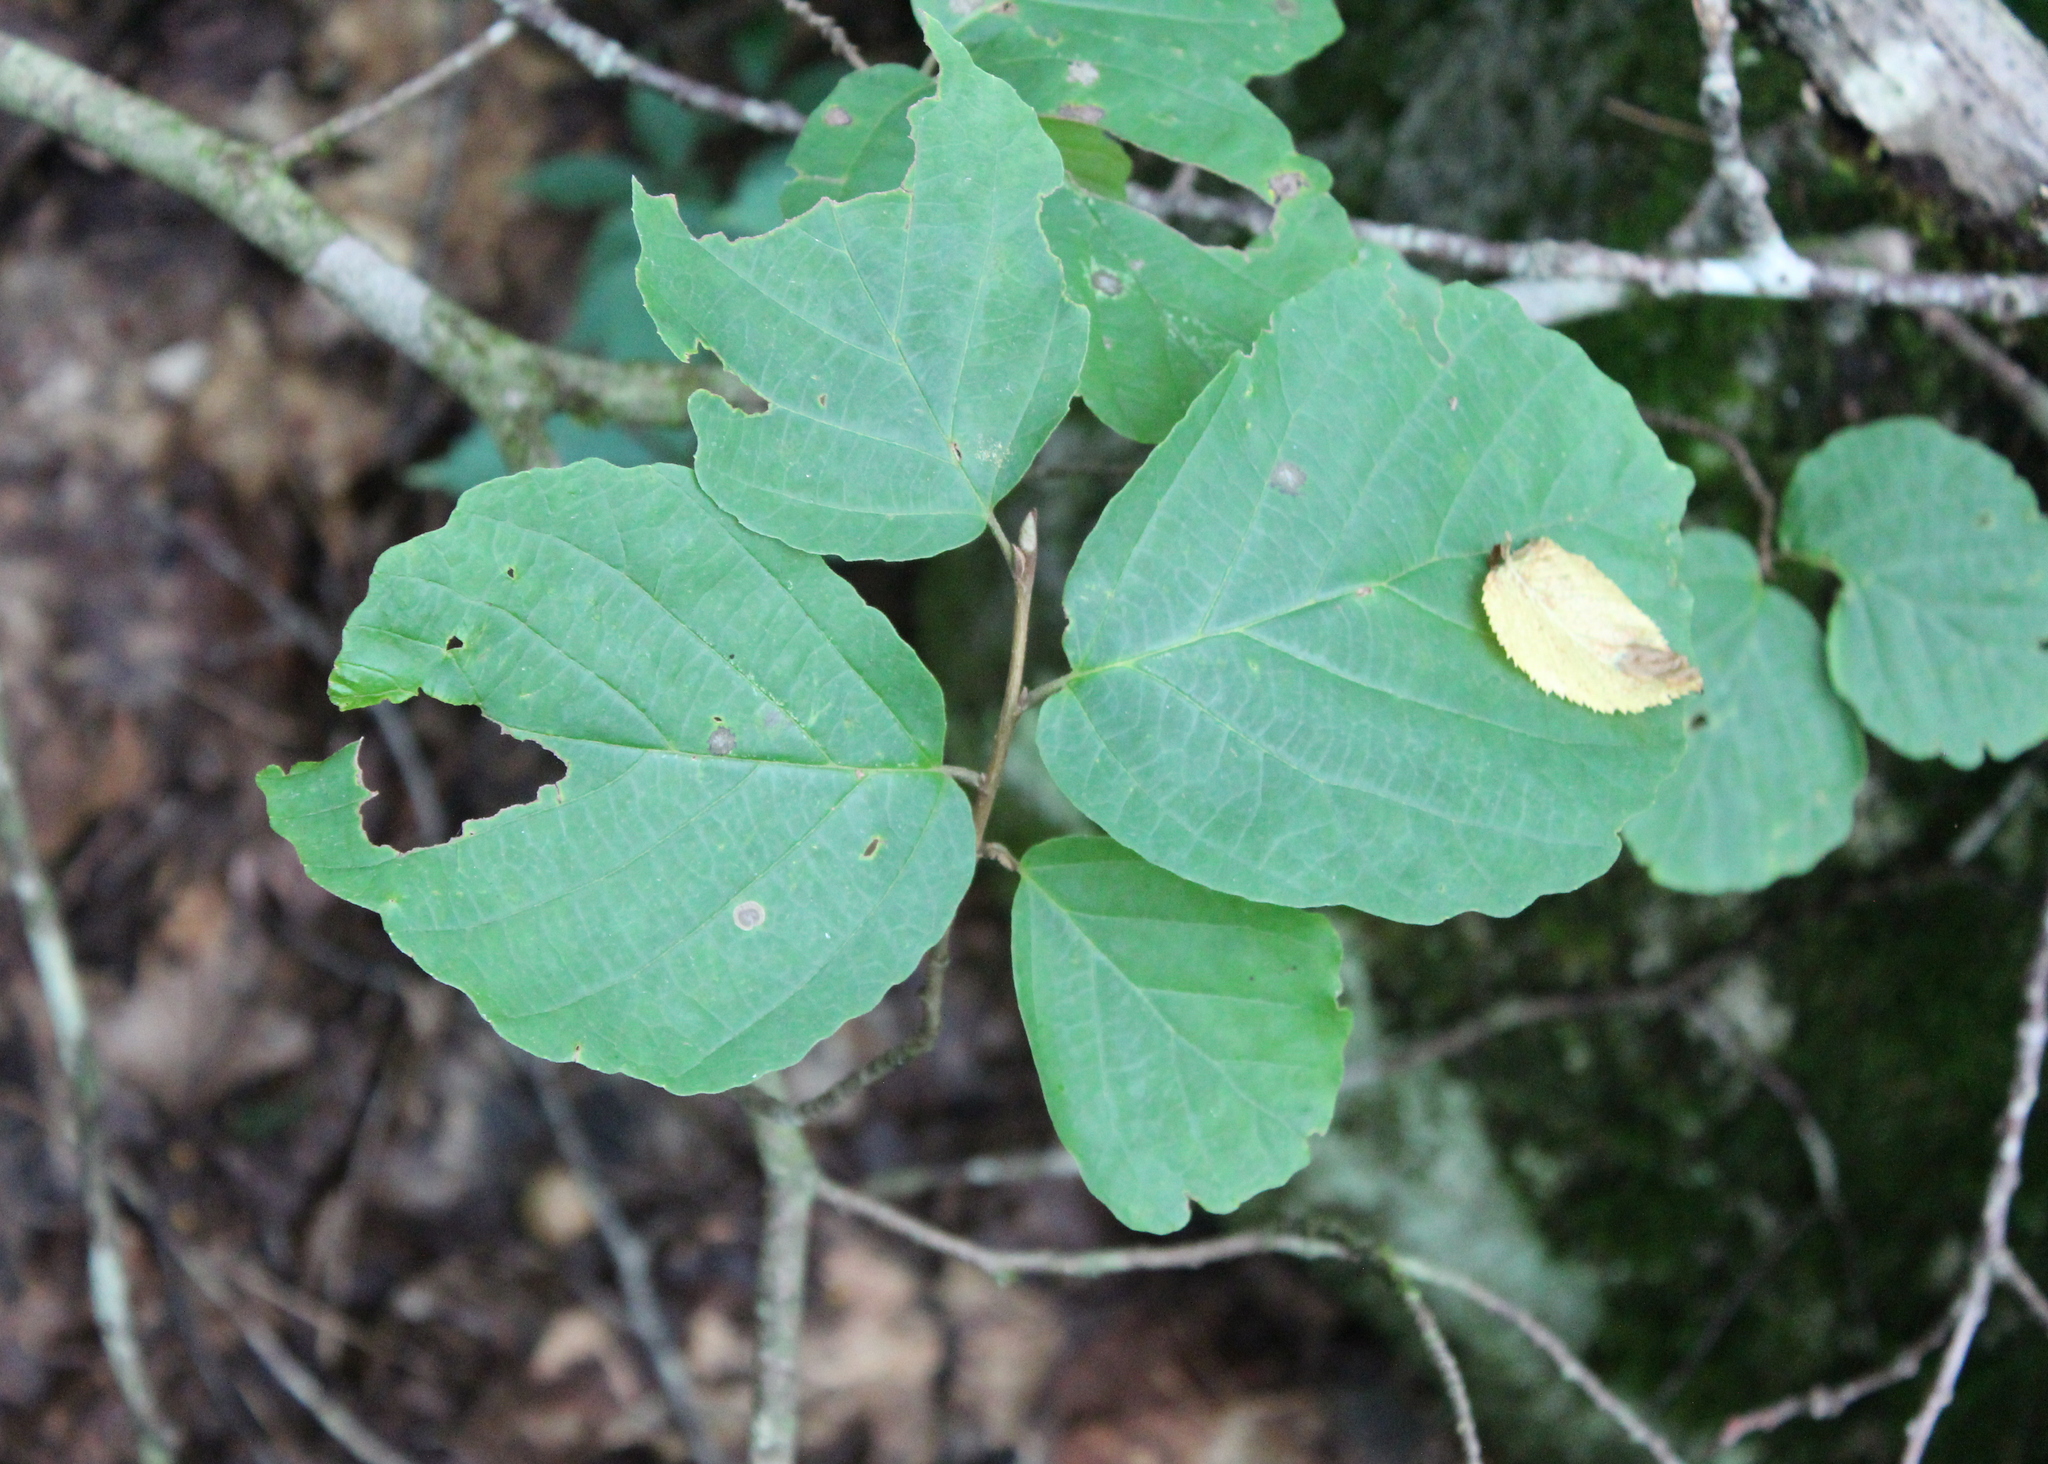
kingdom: Plantae
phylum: Tracheophyta
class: Magnoliopsida
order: Saxifragales
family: Hamamelidaceae
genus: Hamamelis
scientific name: Hamamelis virginiana
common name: Witch-hazel
